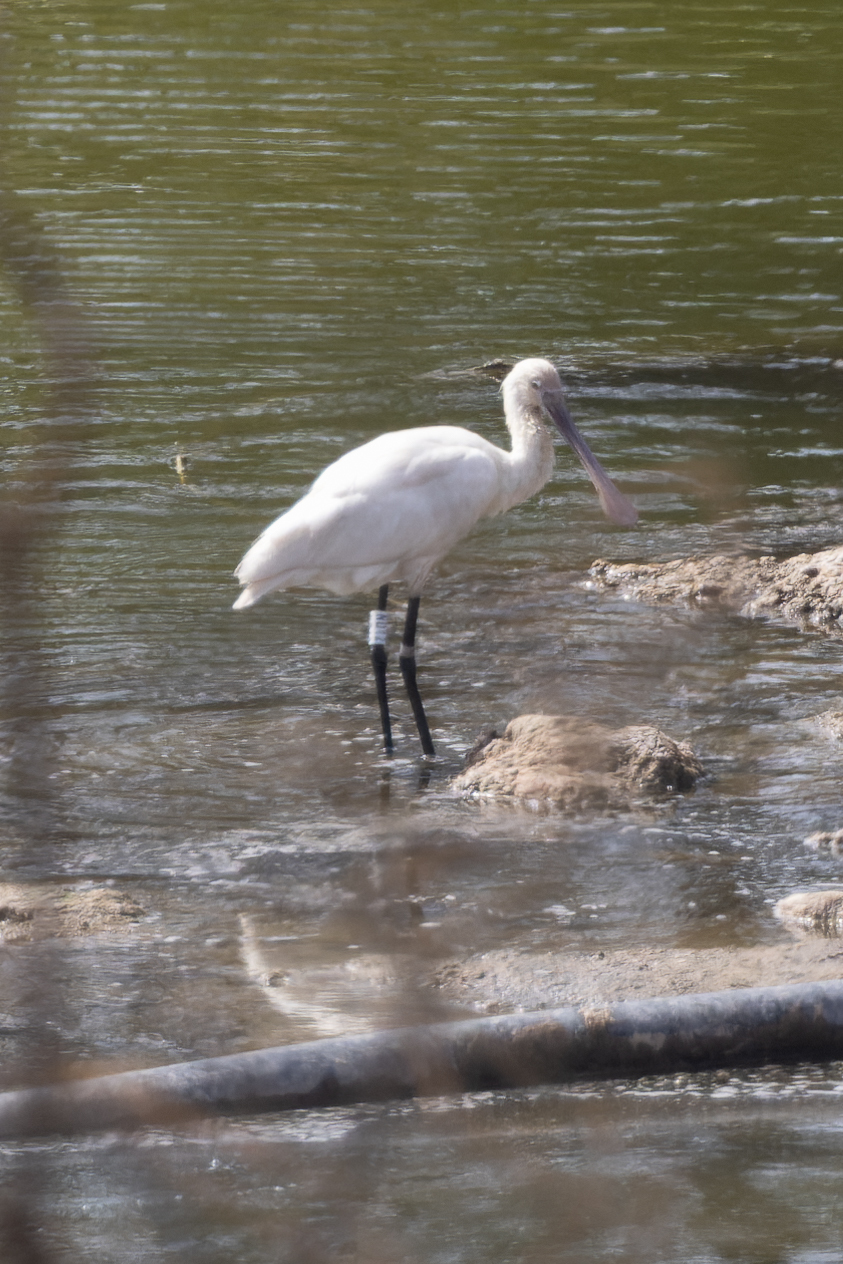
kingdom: Animalia
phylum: Chordata
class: Aves
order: Pelecaniformes
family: Threskiornithidae
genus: Platalea
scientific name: Platalea leucorodia
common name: Eurasian spoonbill
